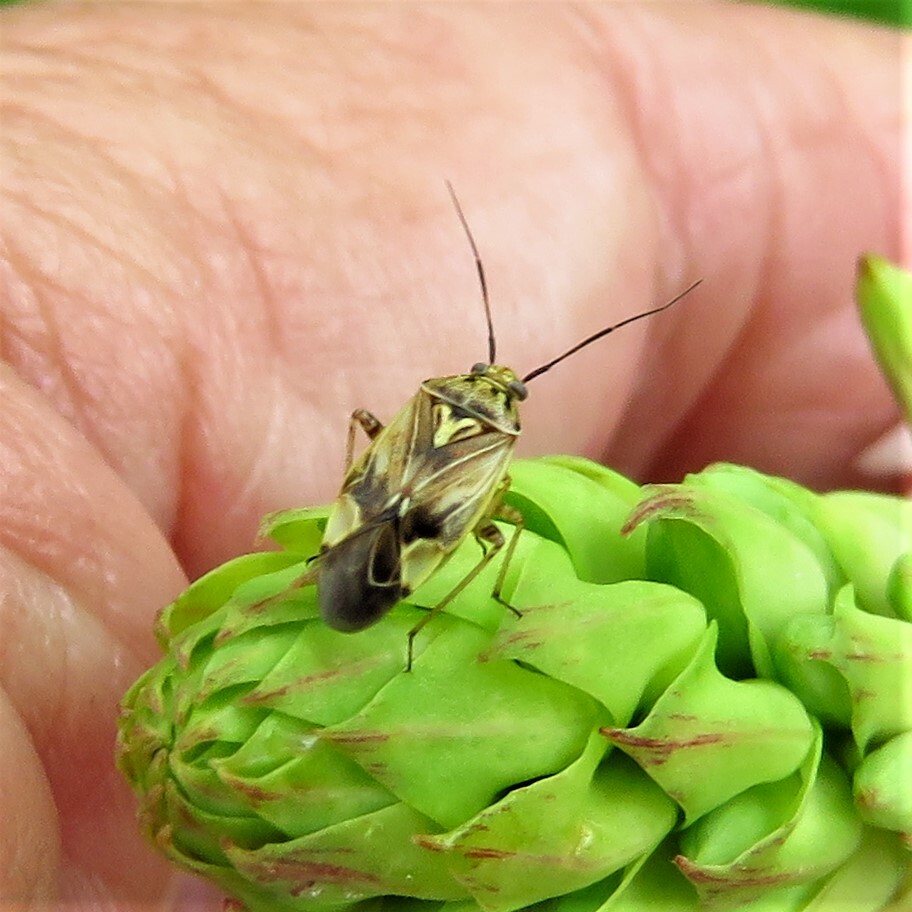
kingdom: Animalia
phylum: Arthropoda
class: Insecta
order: Hemiptera
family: Miridae
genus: Lygus
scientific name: Lygus lineolaris
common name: North american tarnished plant bug
